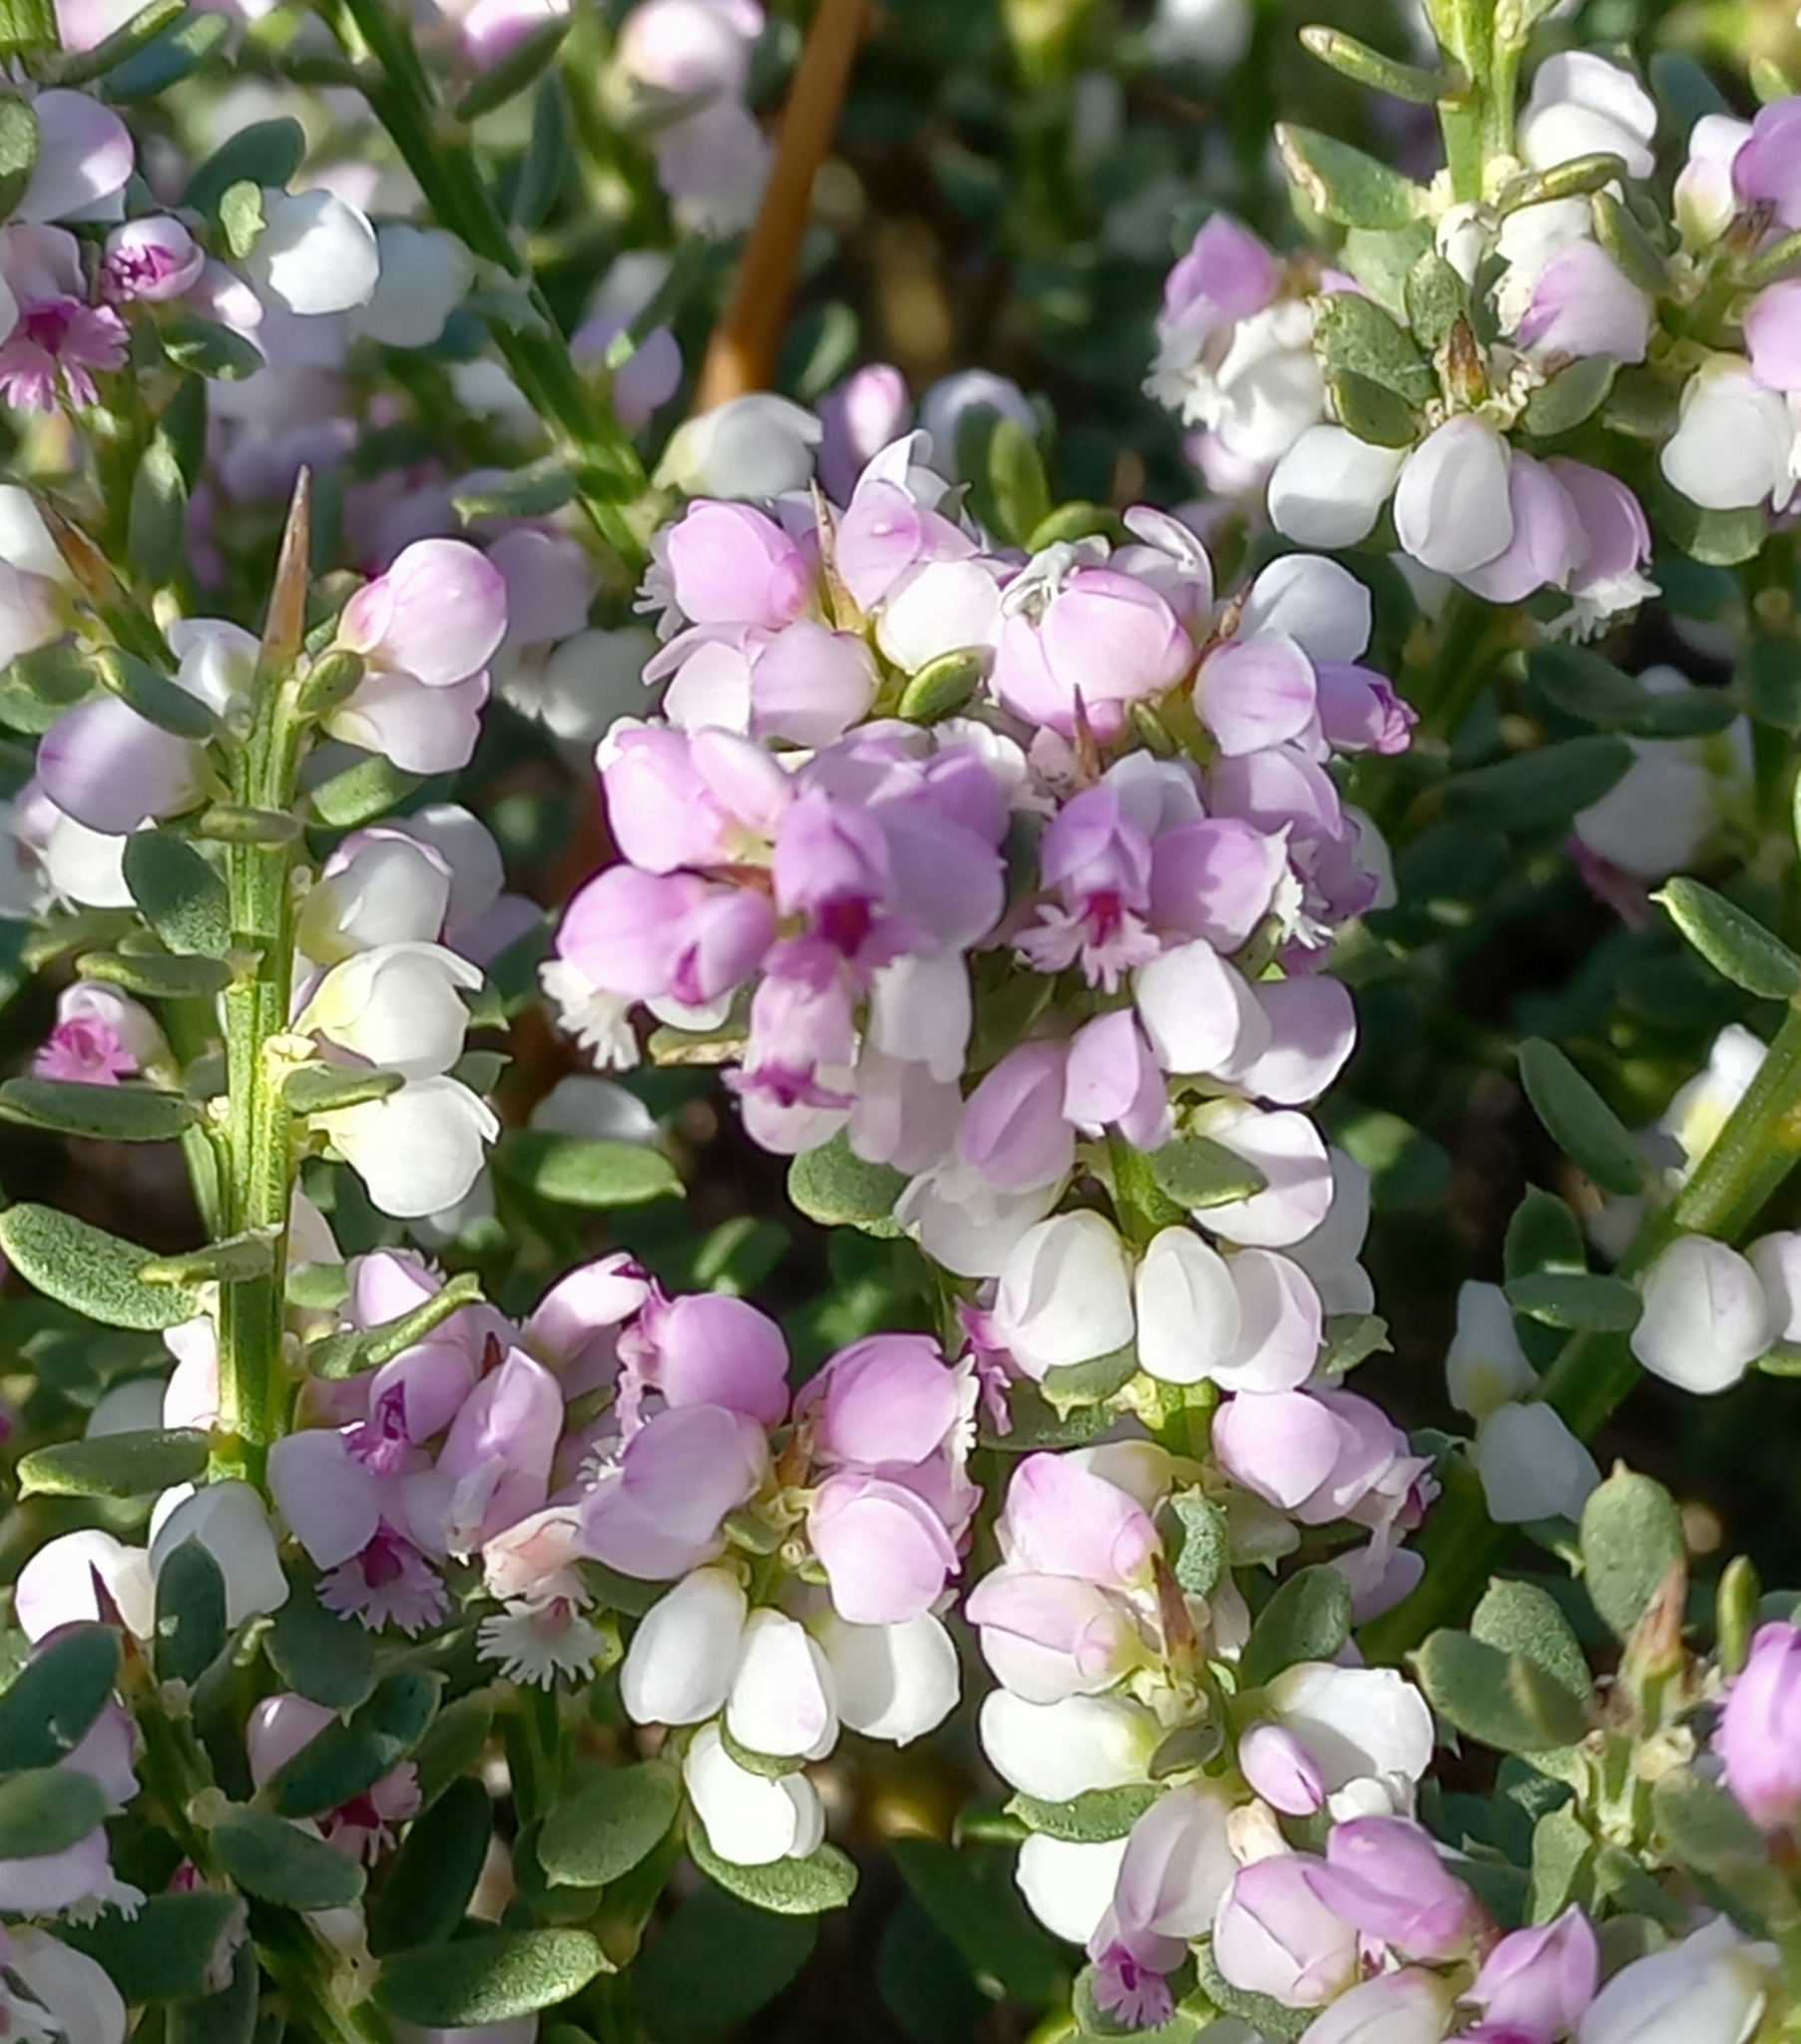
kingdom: Plantae
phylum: Tracheophyta
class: Magnoliopsida
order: Fabales
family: Polygalaceae
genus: Muraltia
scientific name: Muraltia spinosa
